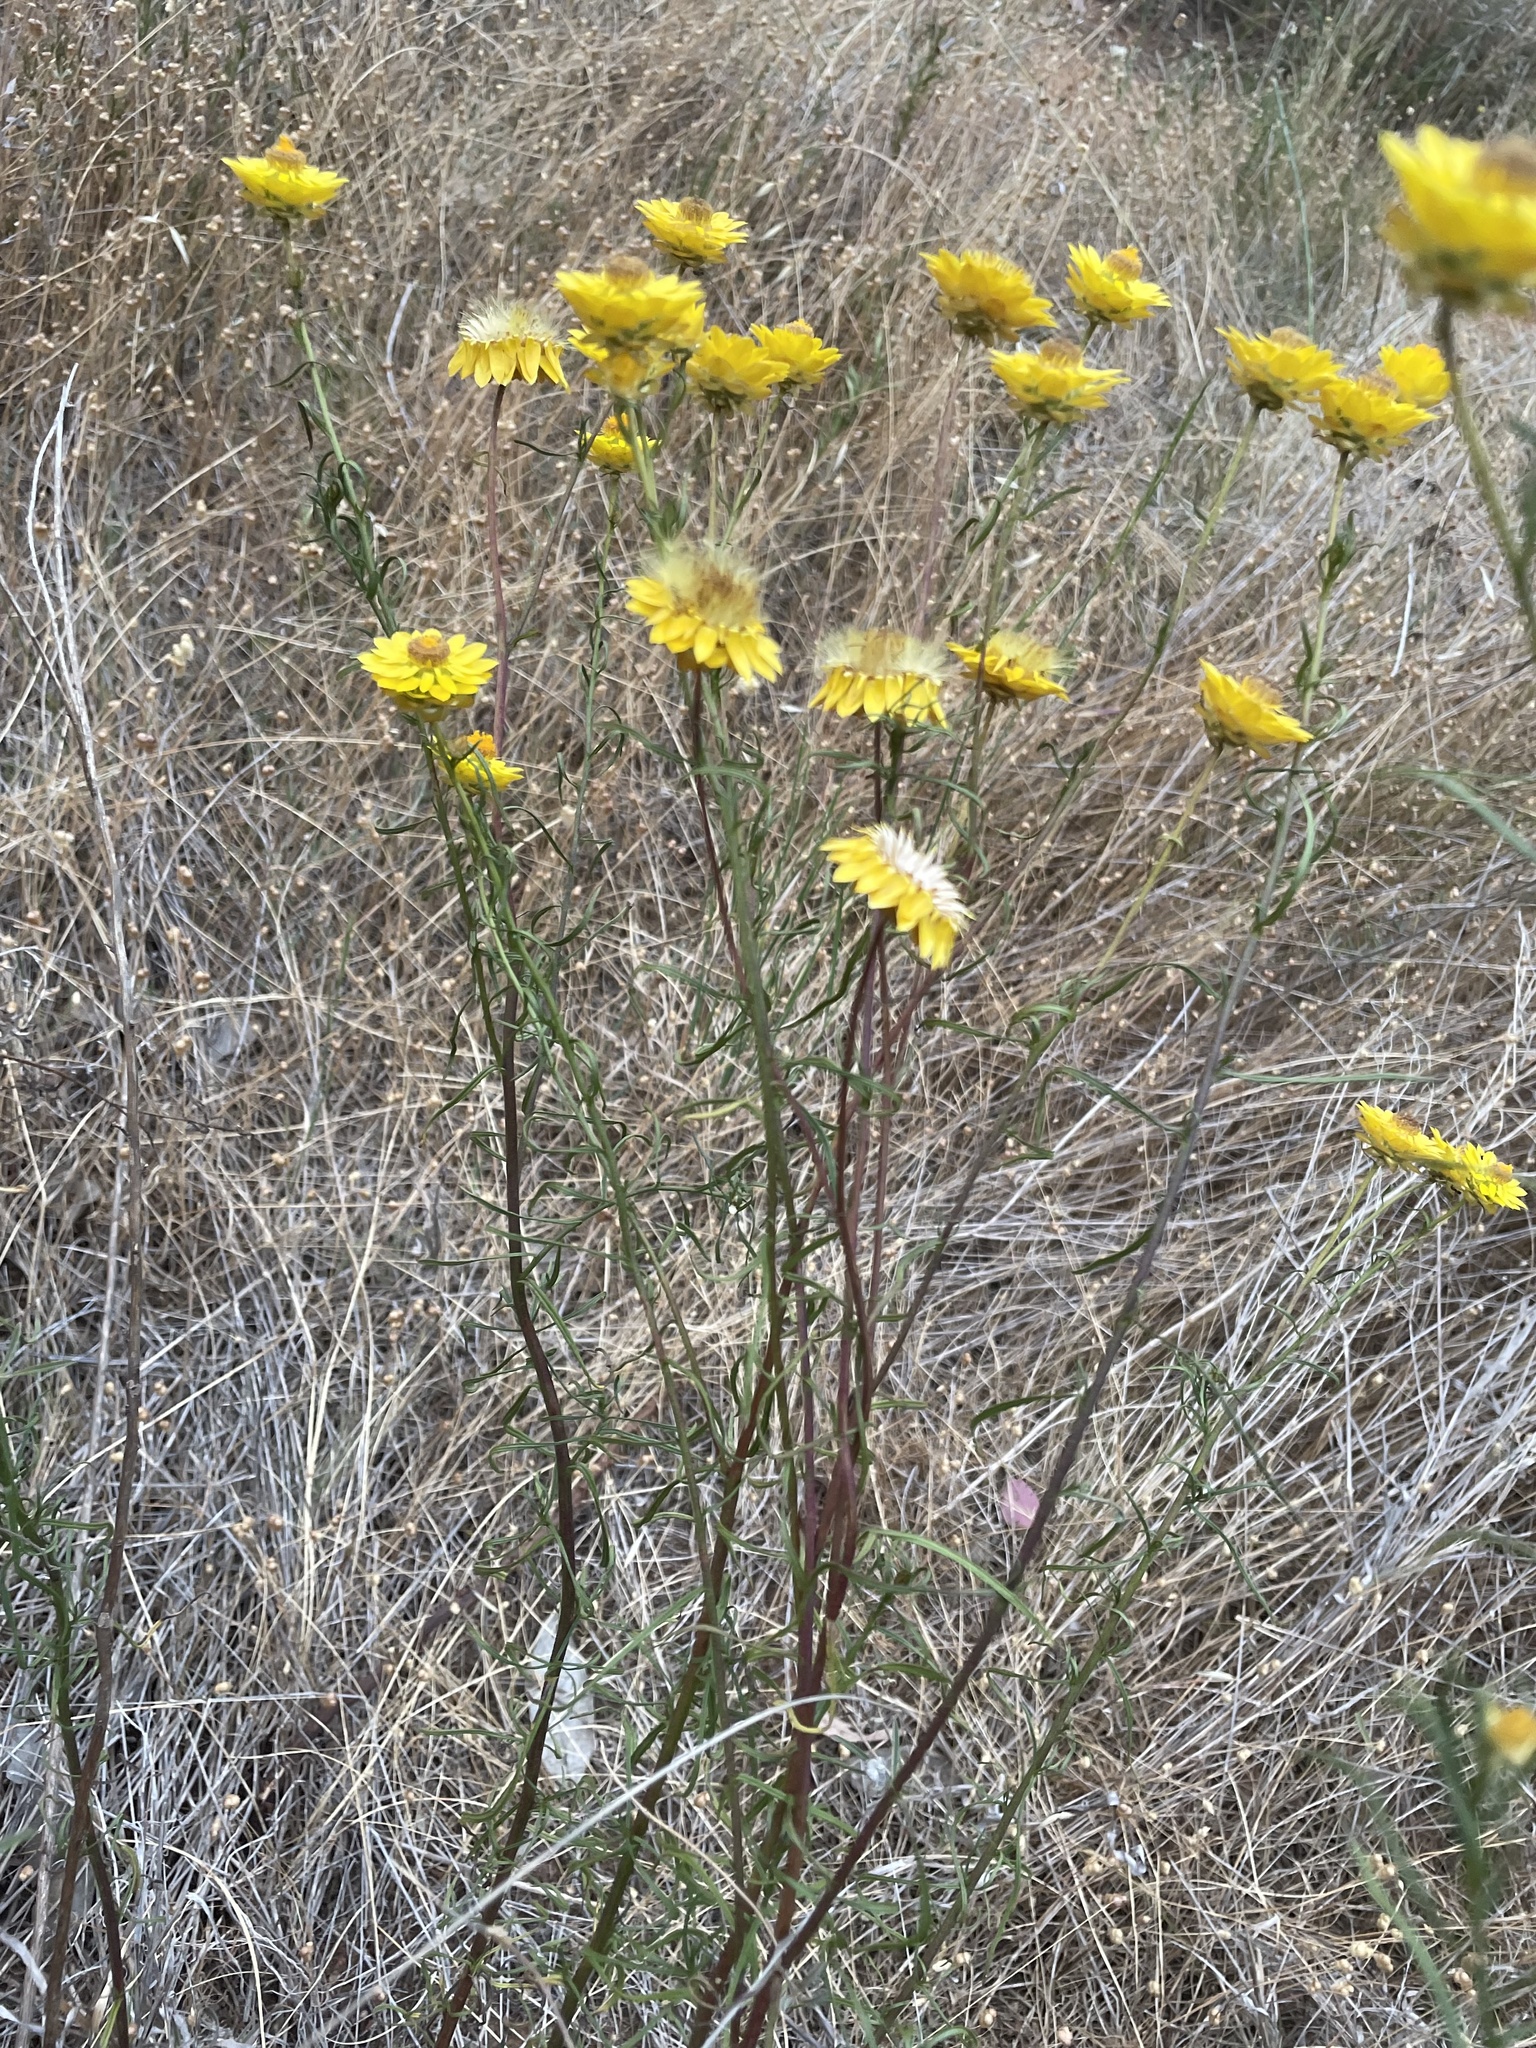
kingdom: Plantae
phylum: Tracheophyta
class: Magnoliopsida
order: Asterales
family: Asteraceae
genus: Xerochrysum
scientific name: Xerochrysum viscosum
